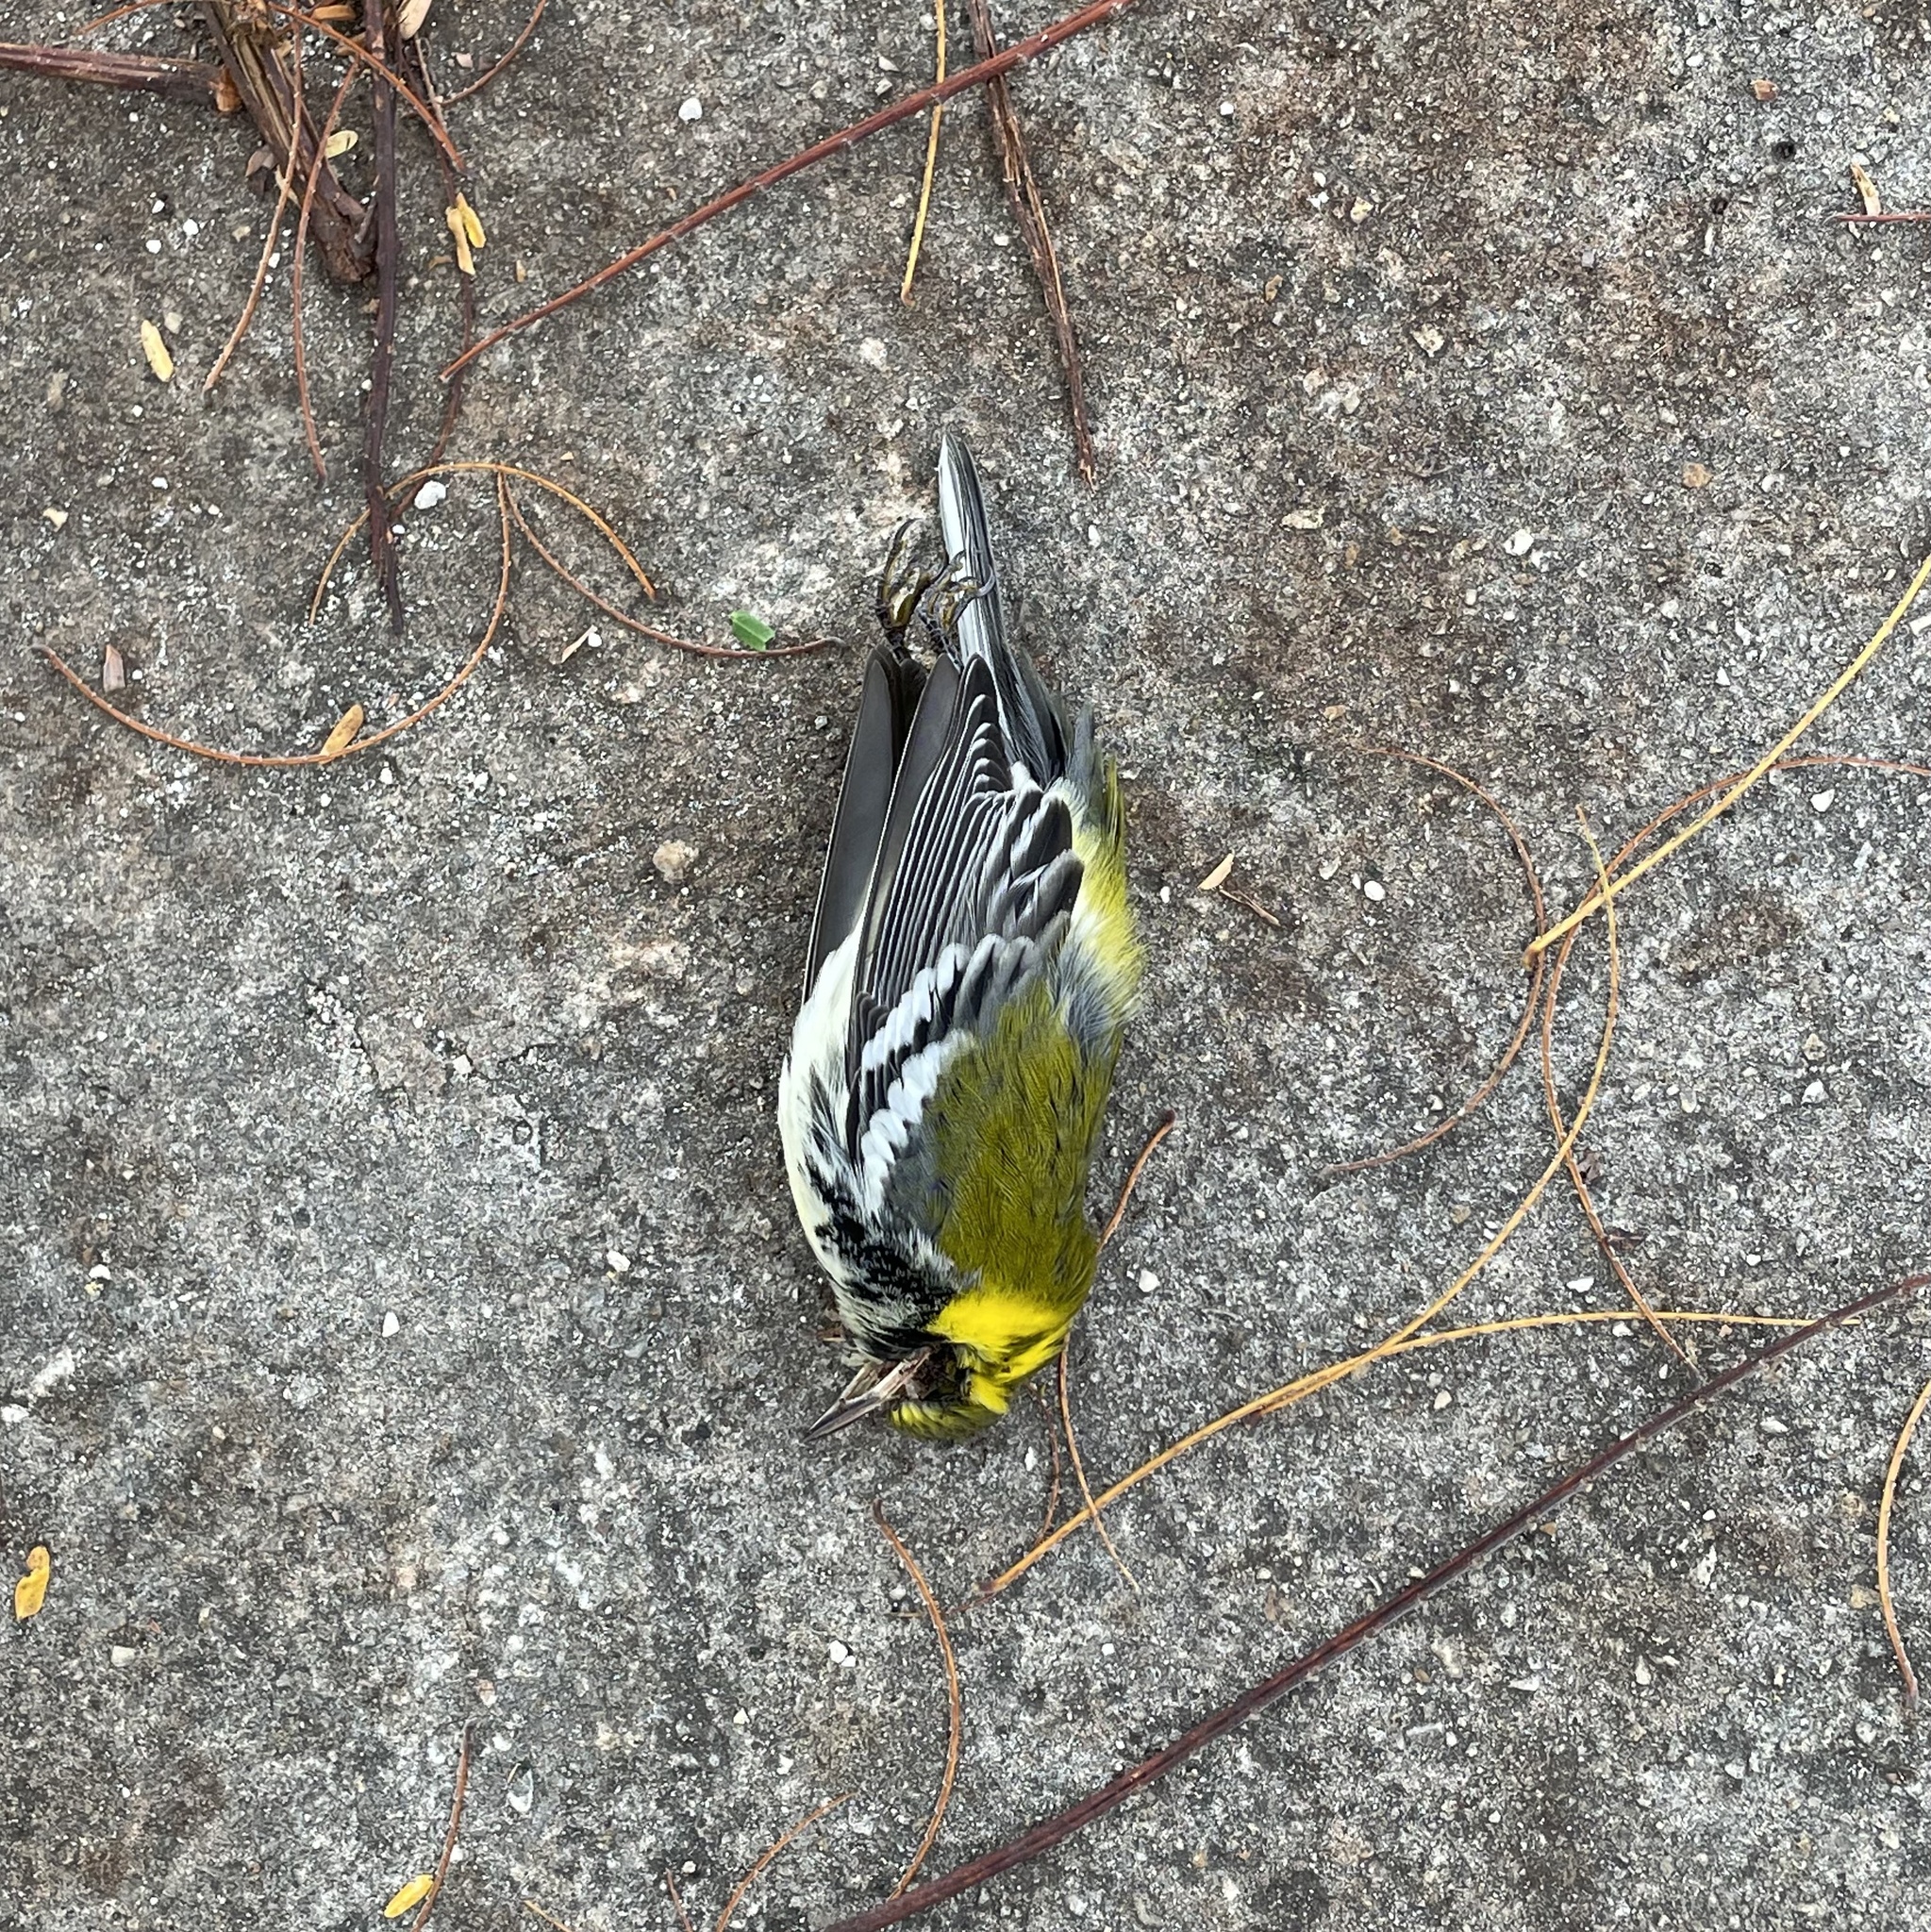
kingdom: Animalia
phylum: Chordata
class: Aves
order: Passeriformes
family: Parulidae
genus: Setophaga
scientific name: Setophaga virens
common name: Black-throated green warbler
